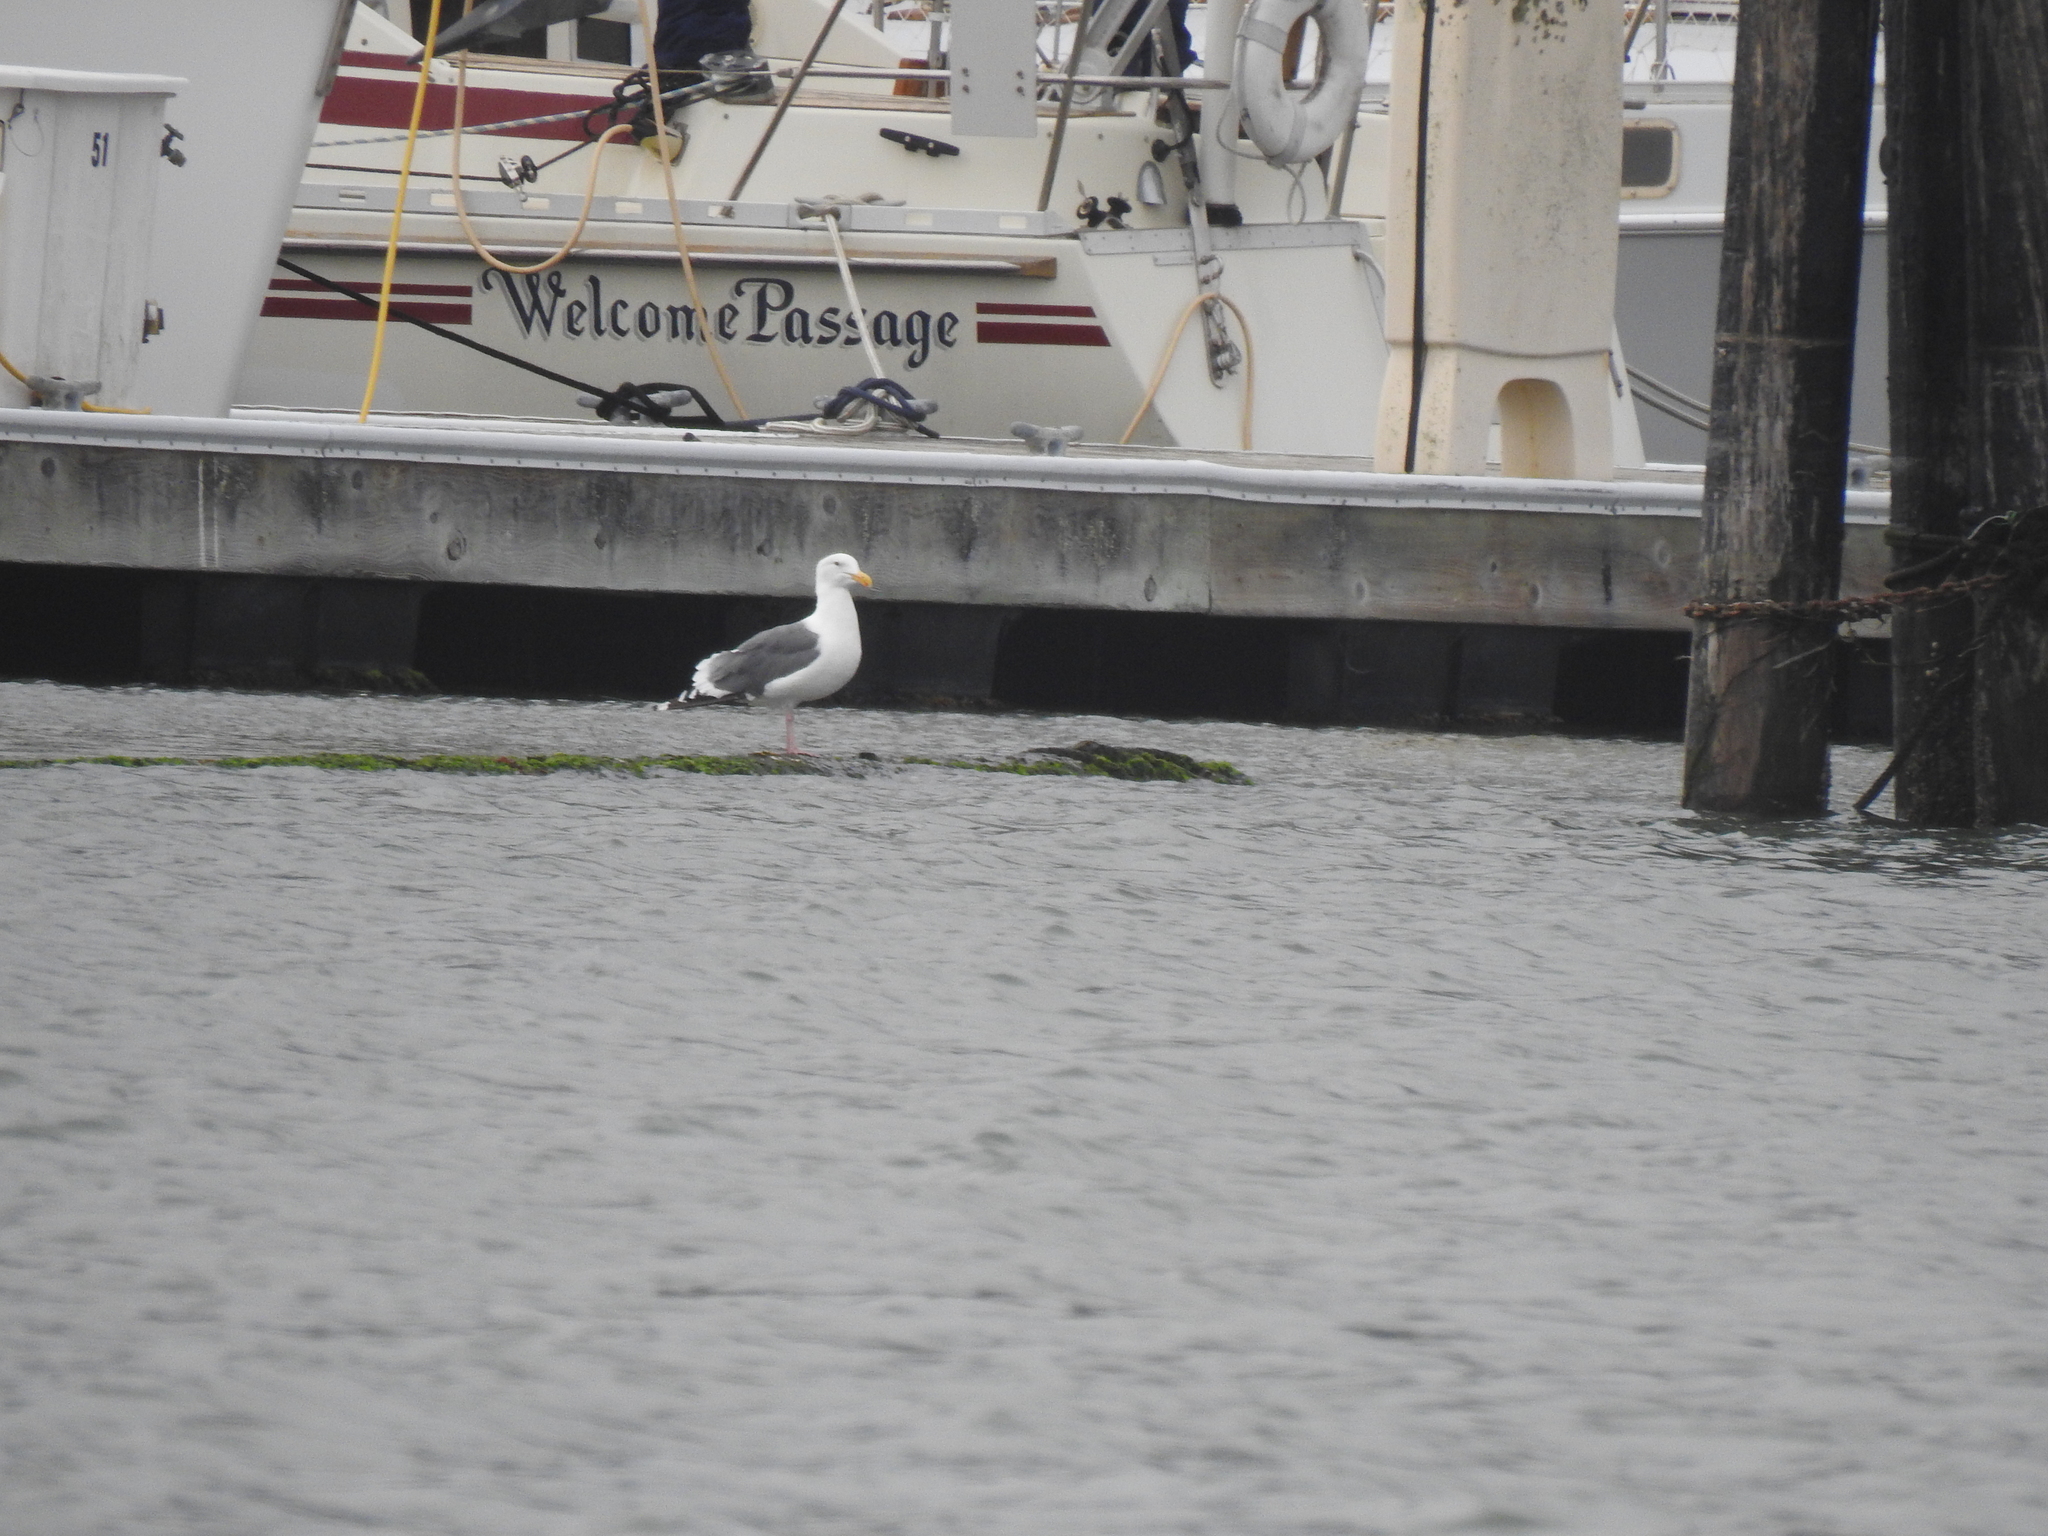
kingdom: Animalia
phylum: Chordata
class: Aves
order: Charadriiformes
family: Laridae
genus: Larus
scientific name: Larus occidentalis
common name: Western gull
